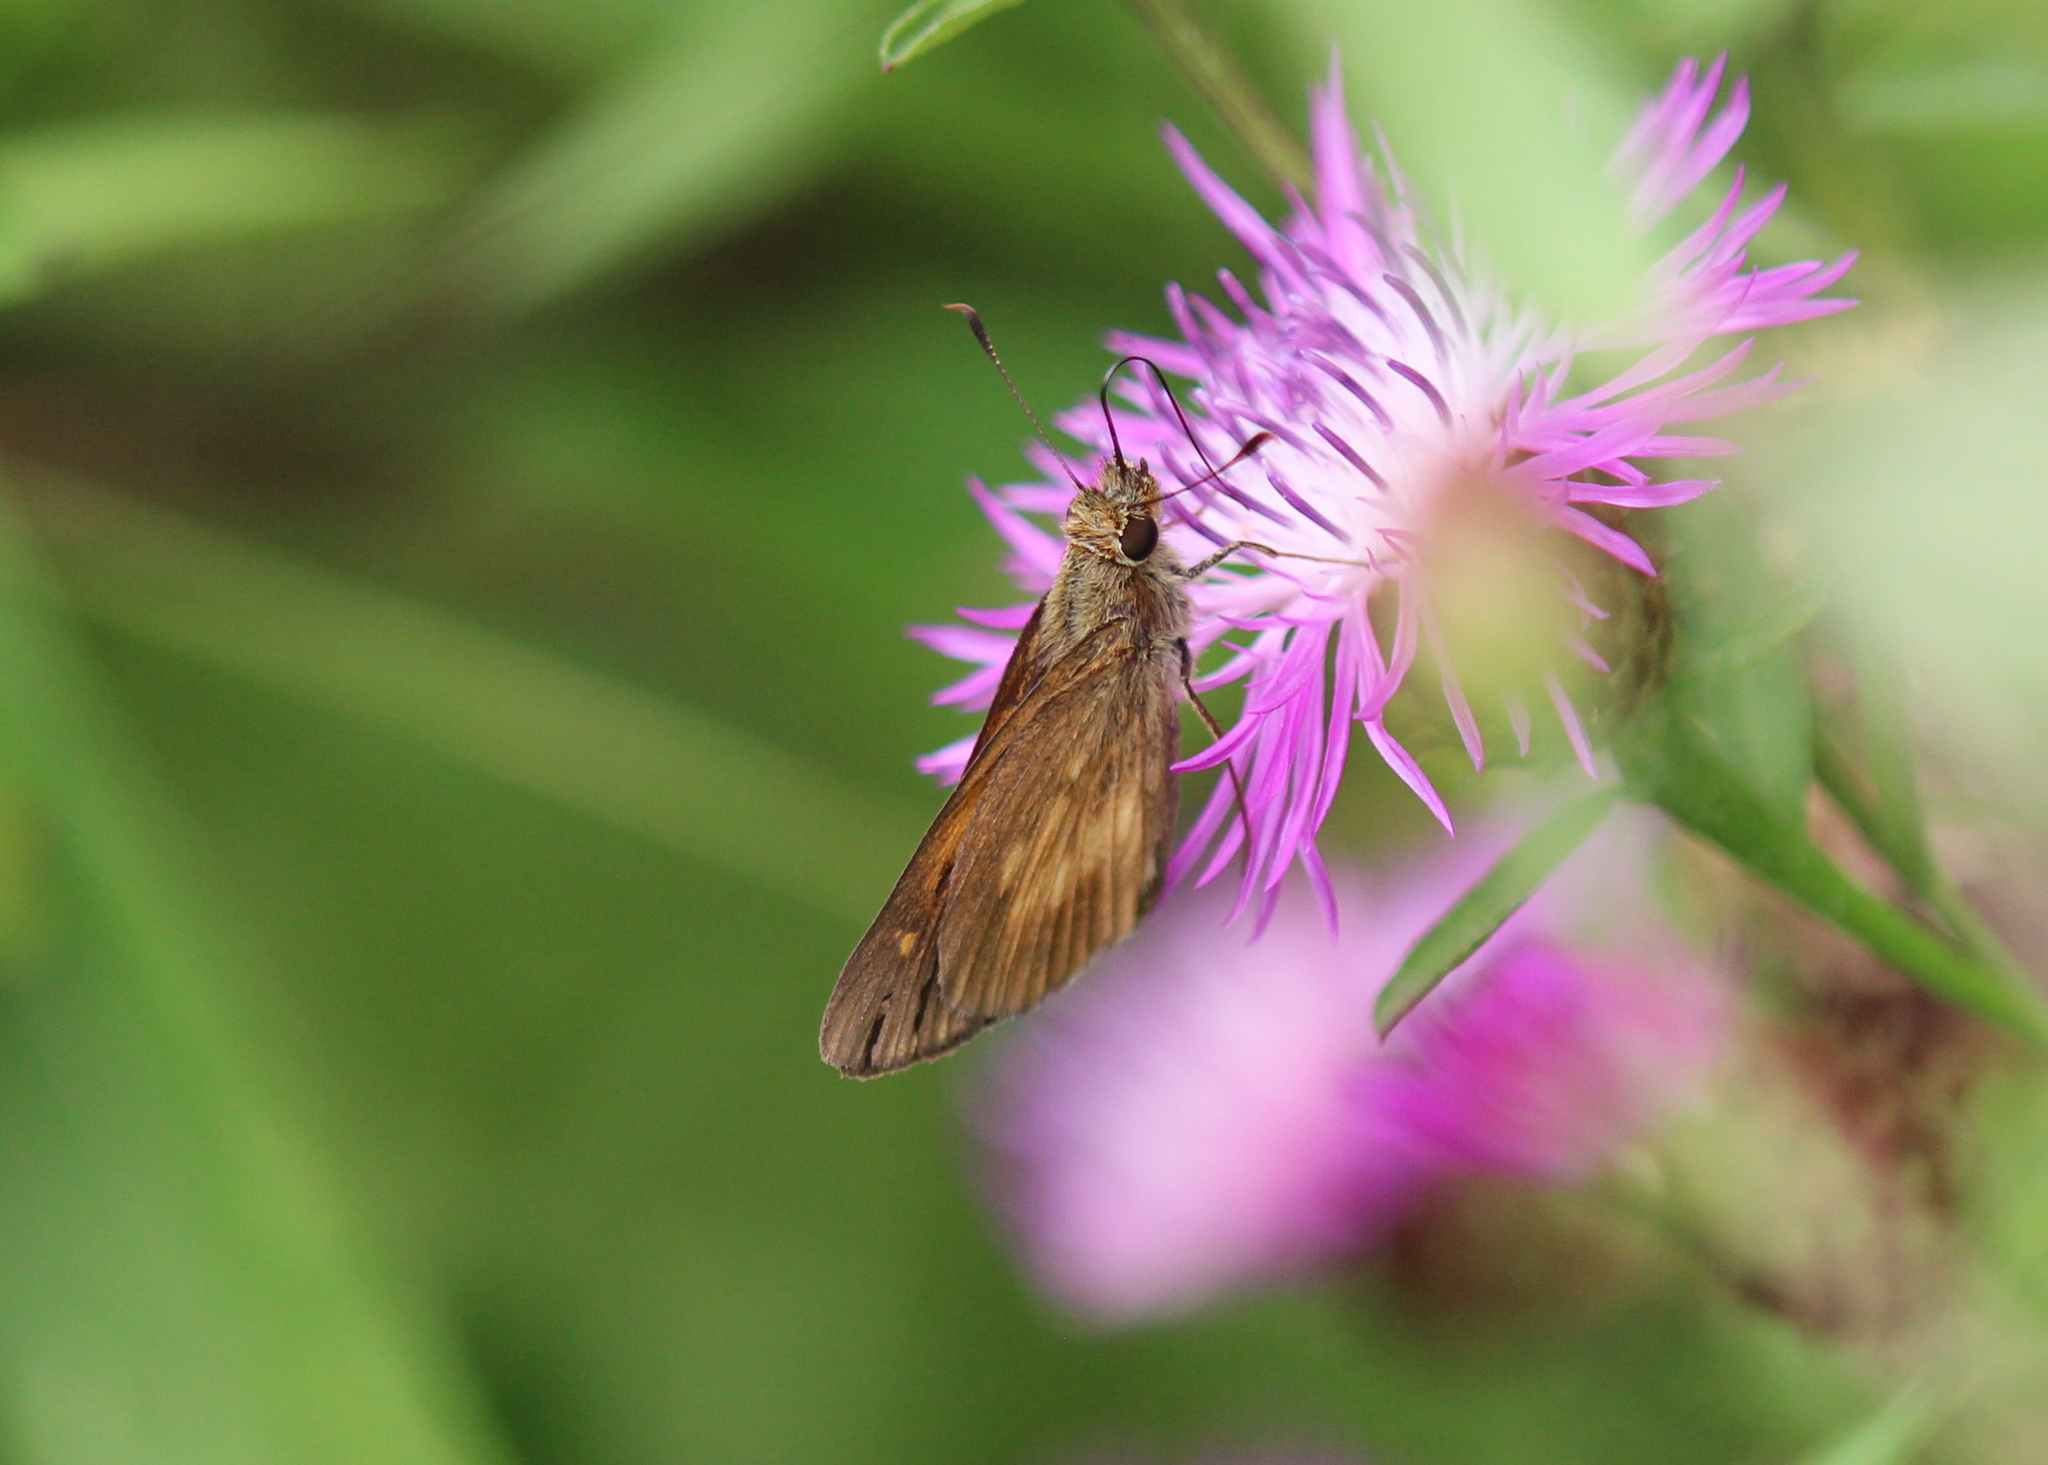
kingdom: Animalia
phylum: Arthropoda
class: Insecta
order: Lepidoptera
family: Hesperiidae
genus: Poanes
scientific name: Poanes viator
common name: Broad-winged skipper
